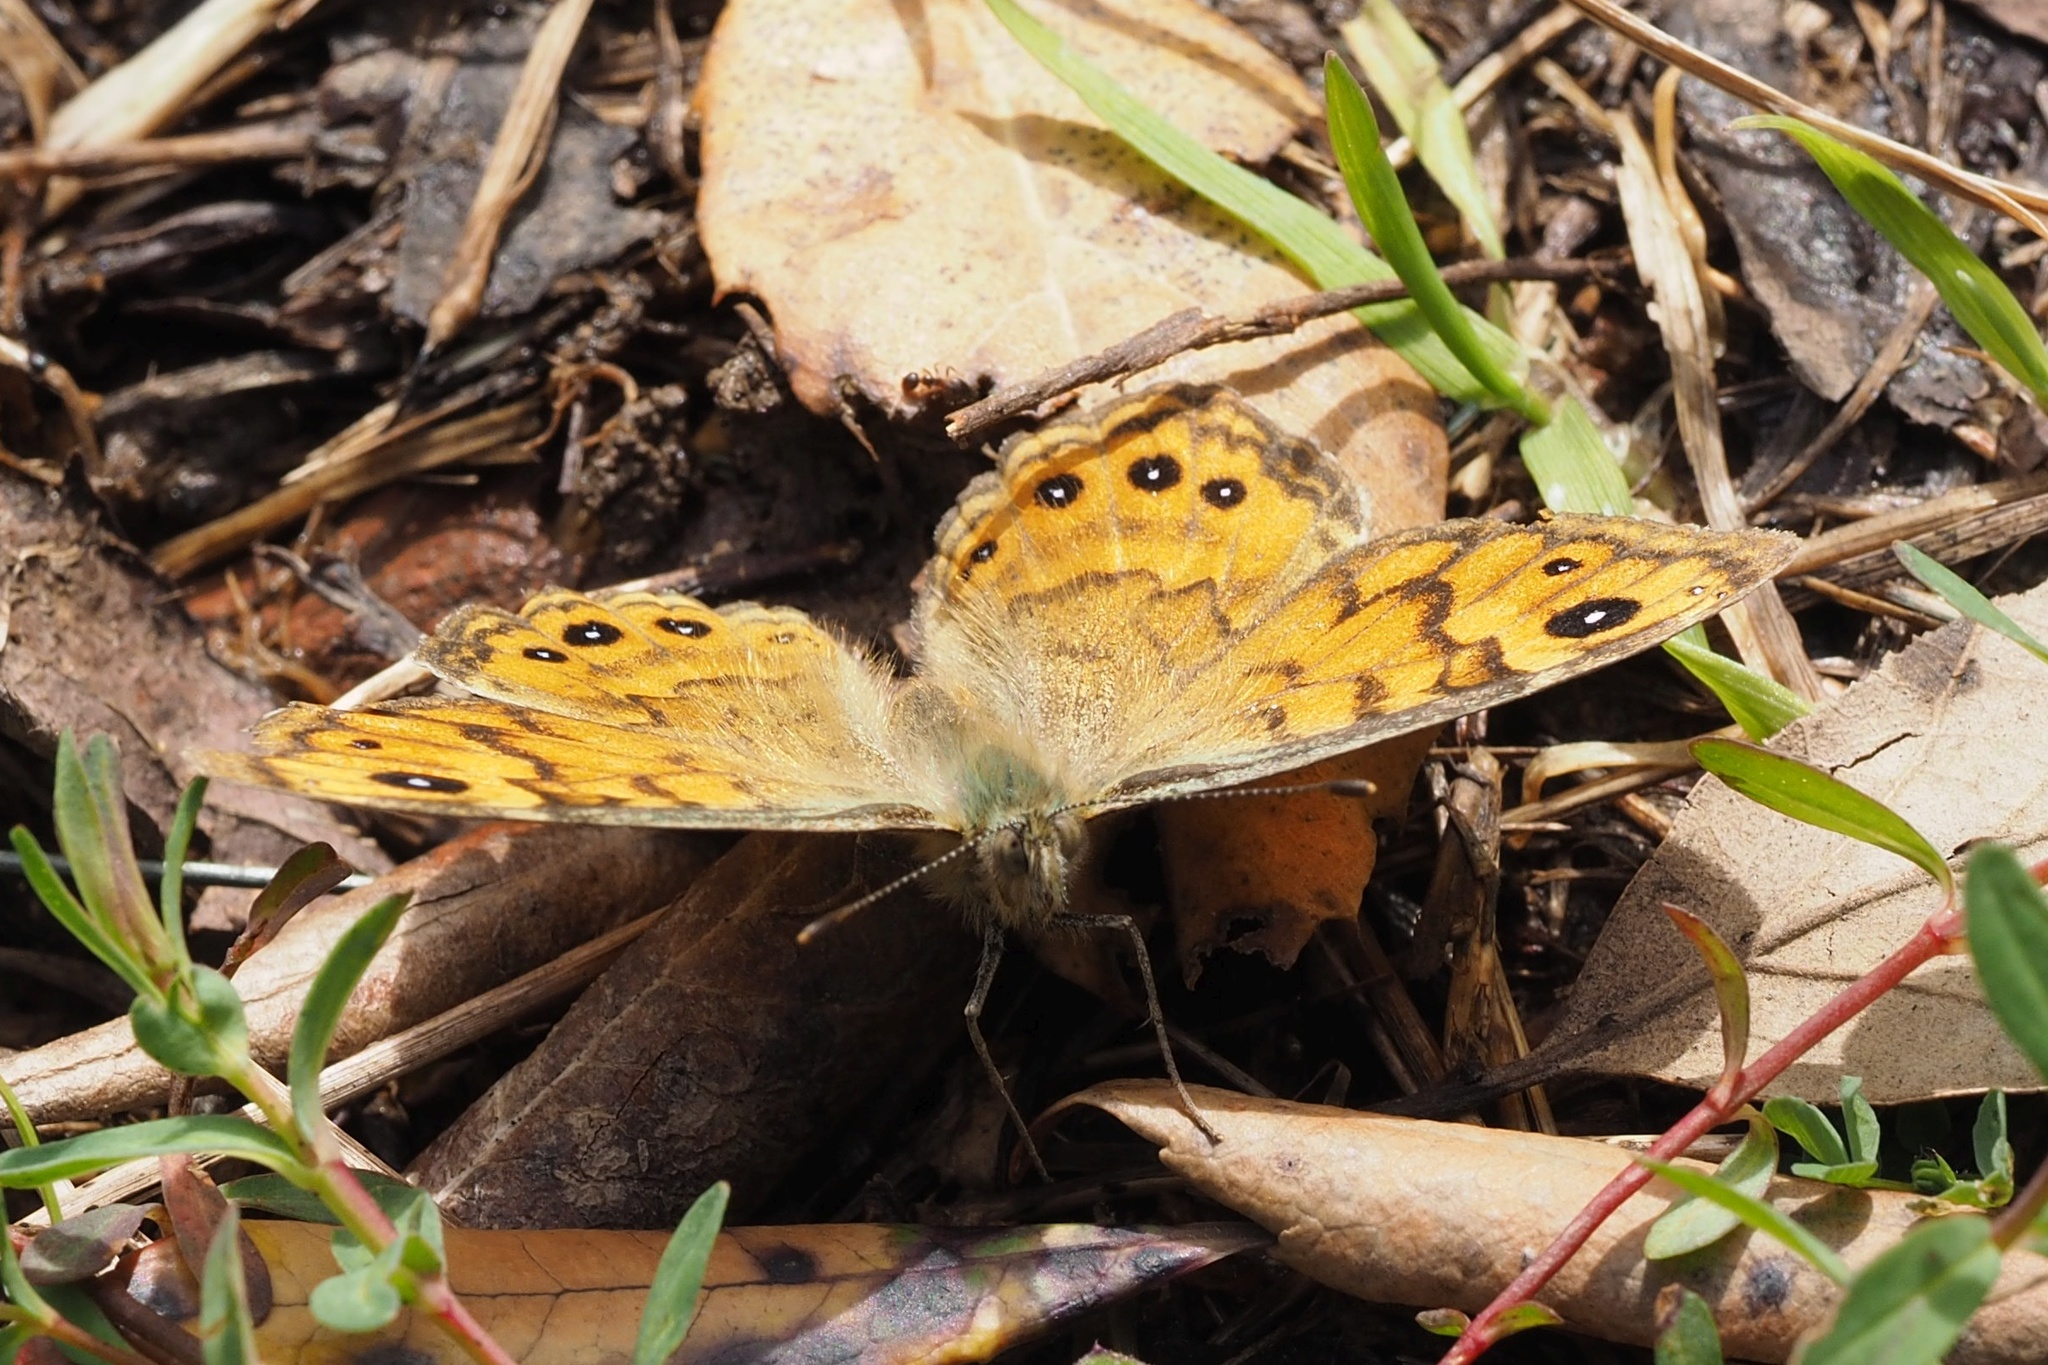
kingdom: Animalia
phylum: Arthropoda
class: Insecta
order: Lepidoptera
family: Nymphalidae
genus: Pararge
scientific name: Pararge Lasiommata megera
